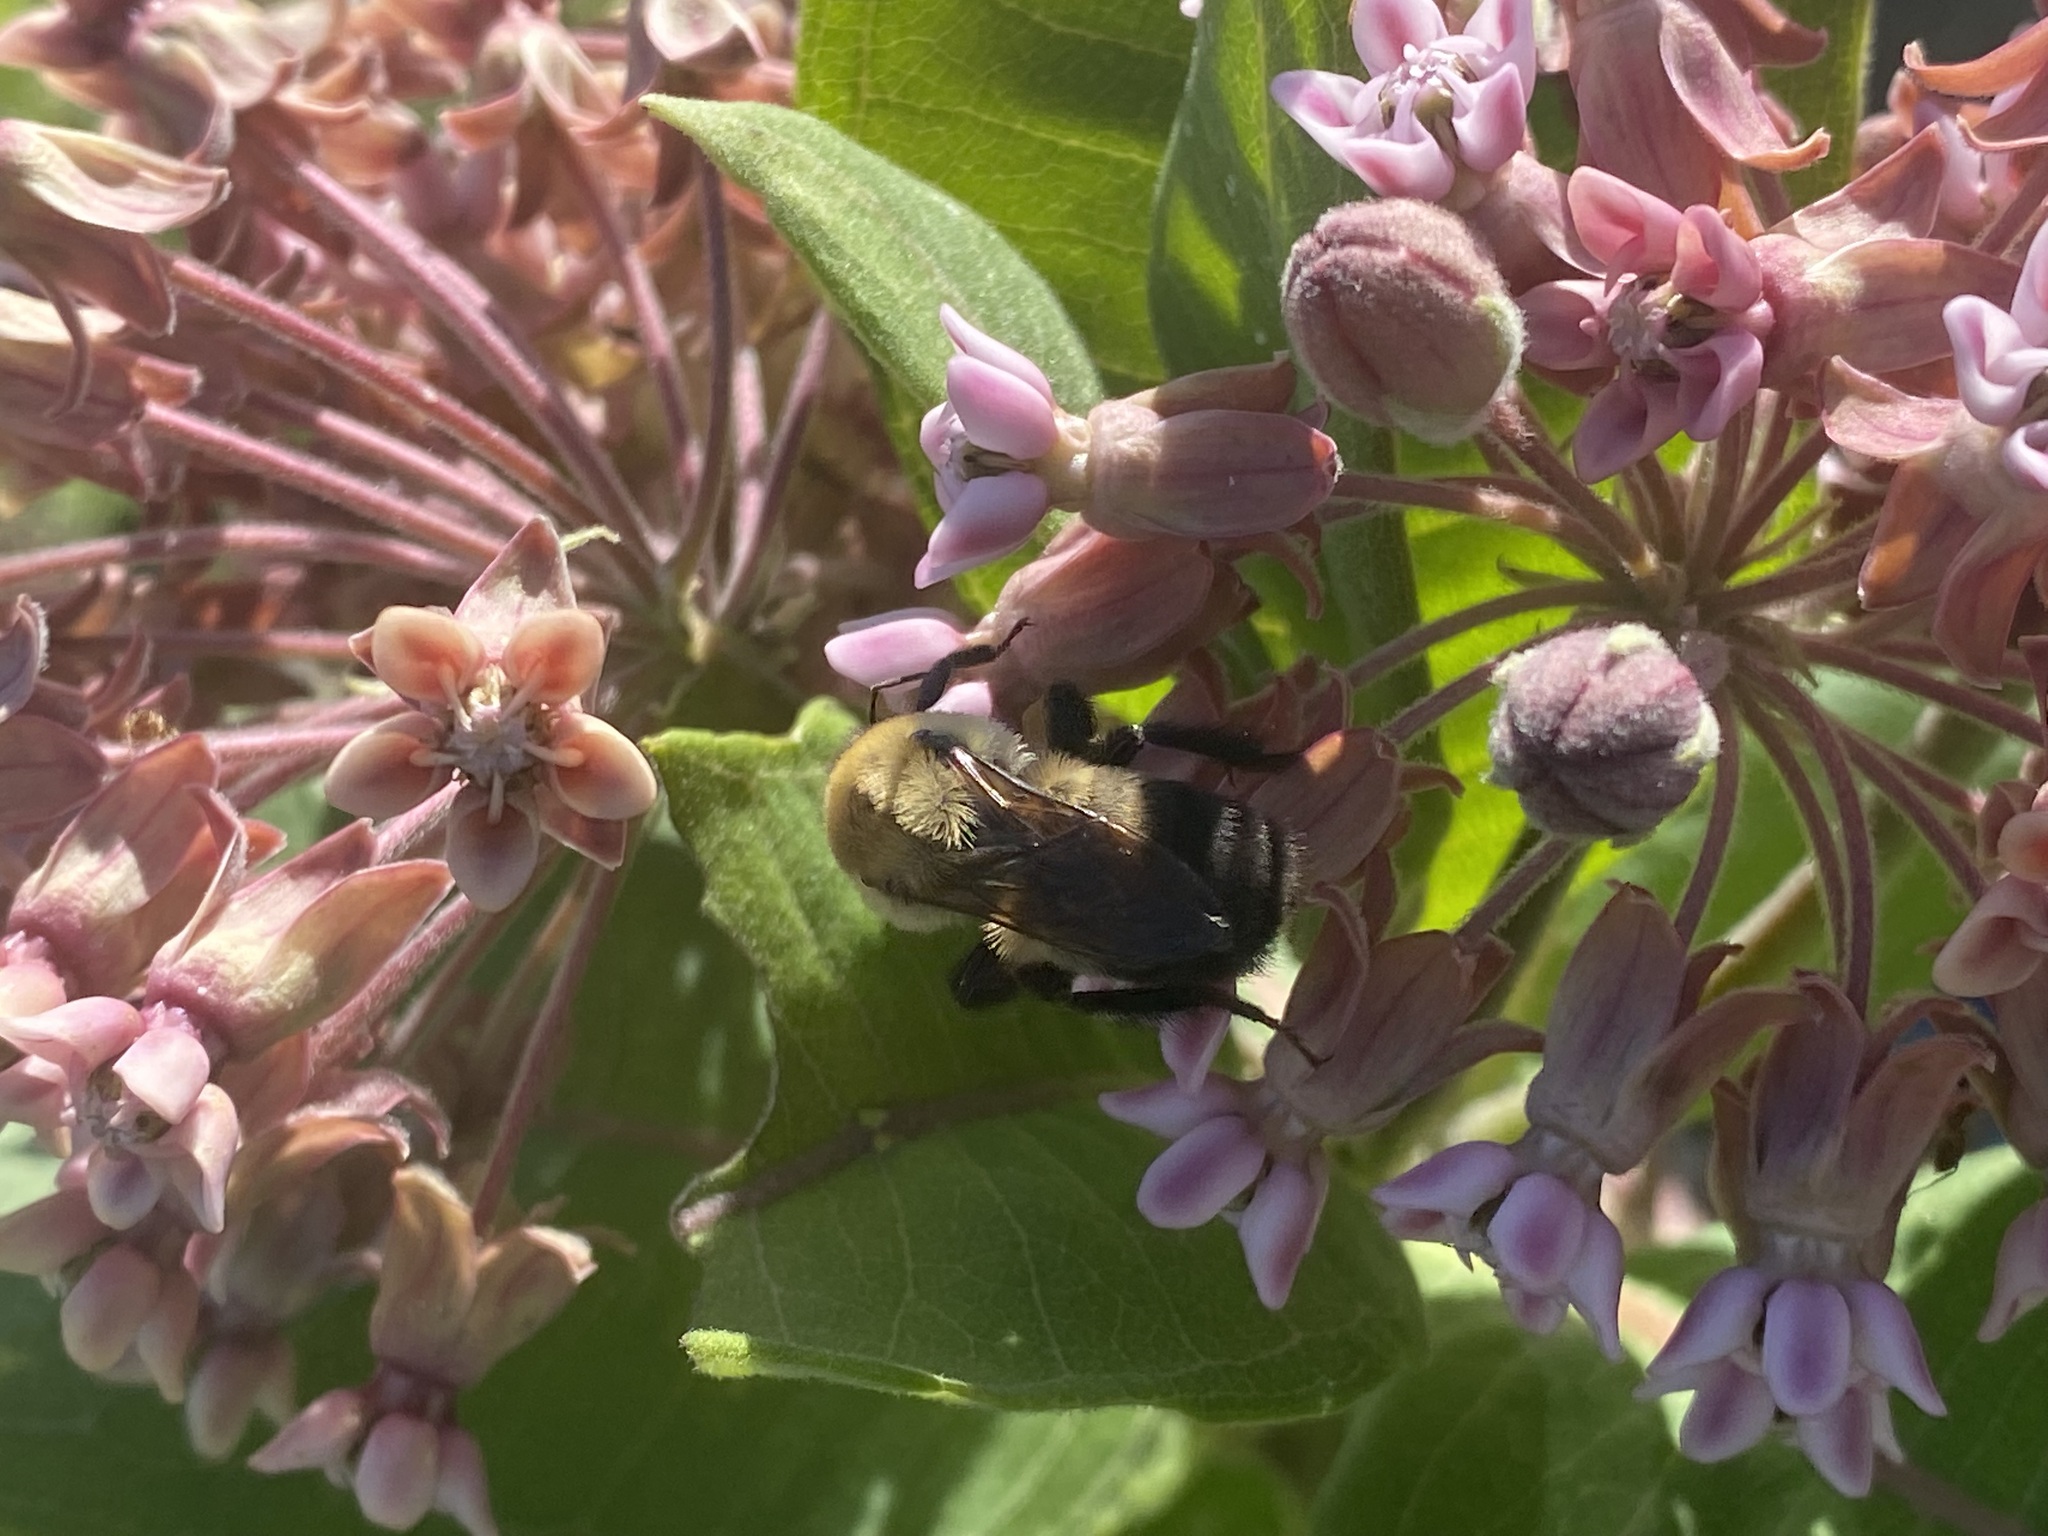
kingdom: Animalia
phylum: Arthropoda
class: Insecta
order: Hymenoptera
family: Apidae
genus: Bombus
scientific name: Bombus griseocollis
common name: Brown-belted bumble bee
